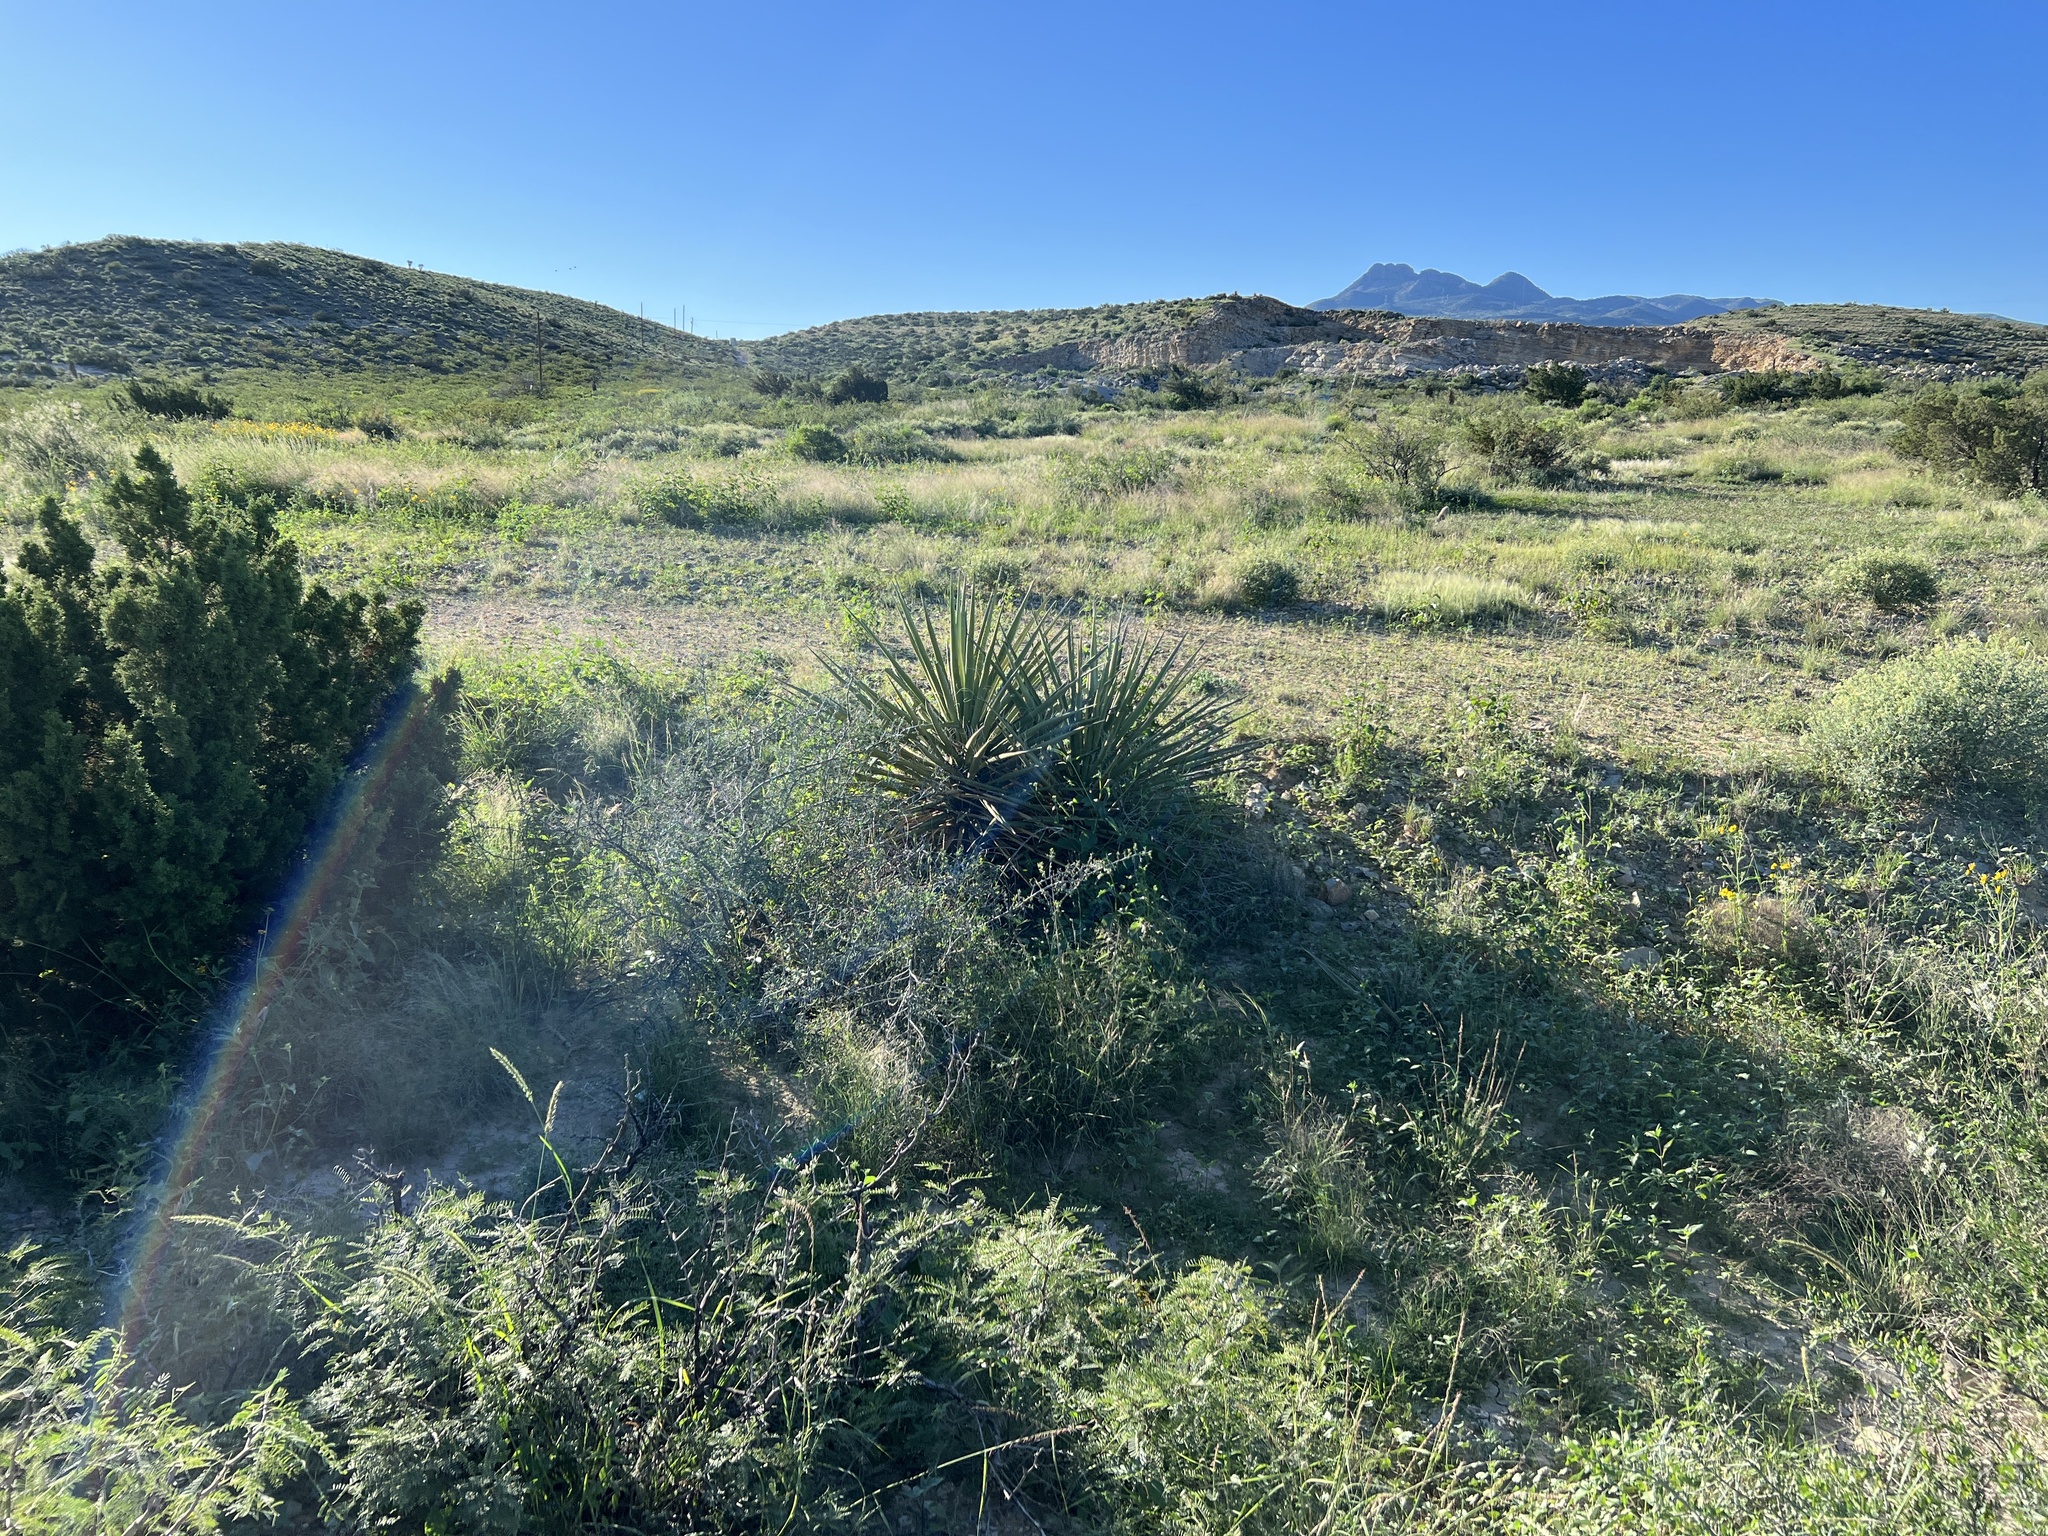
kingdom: Plantae
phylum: Tracheophyta
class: Liliopsida
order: Asparagales
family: Asparagaceae
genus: Yucca
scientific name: Yucca treculiana
